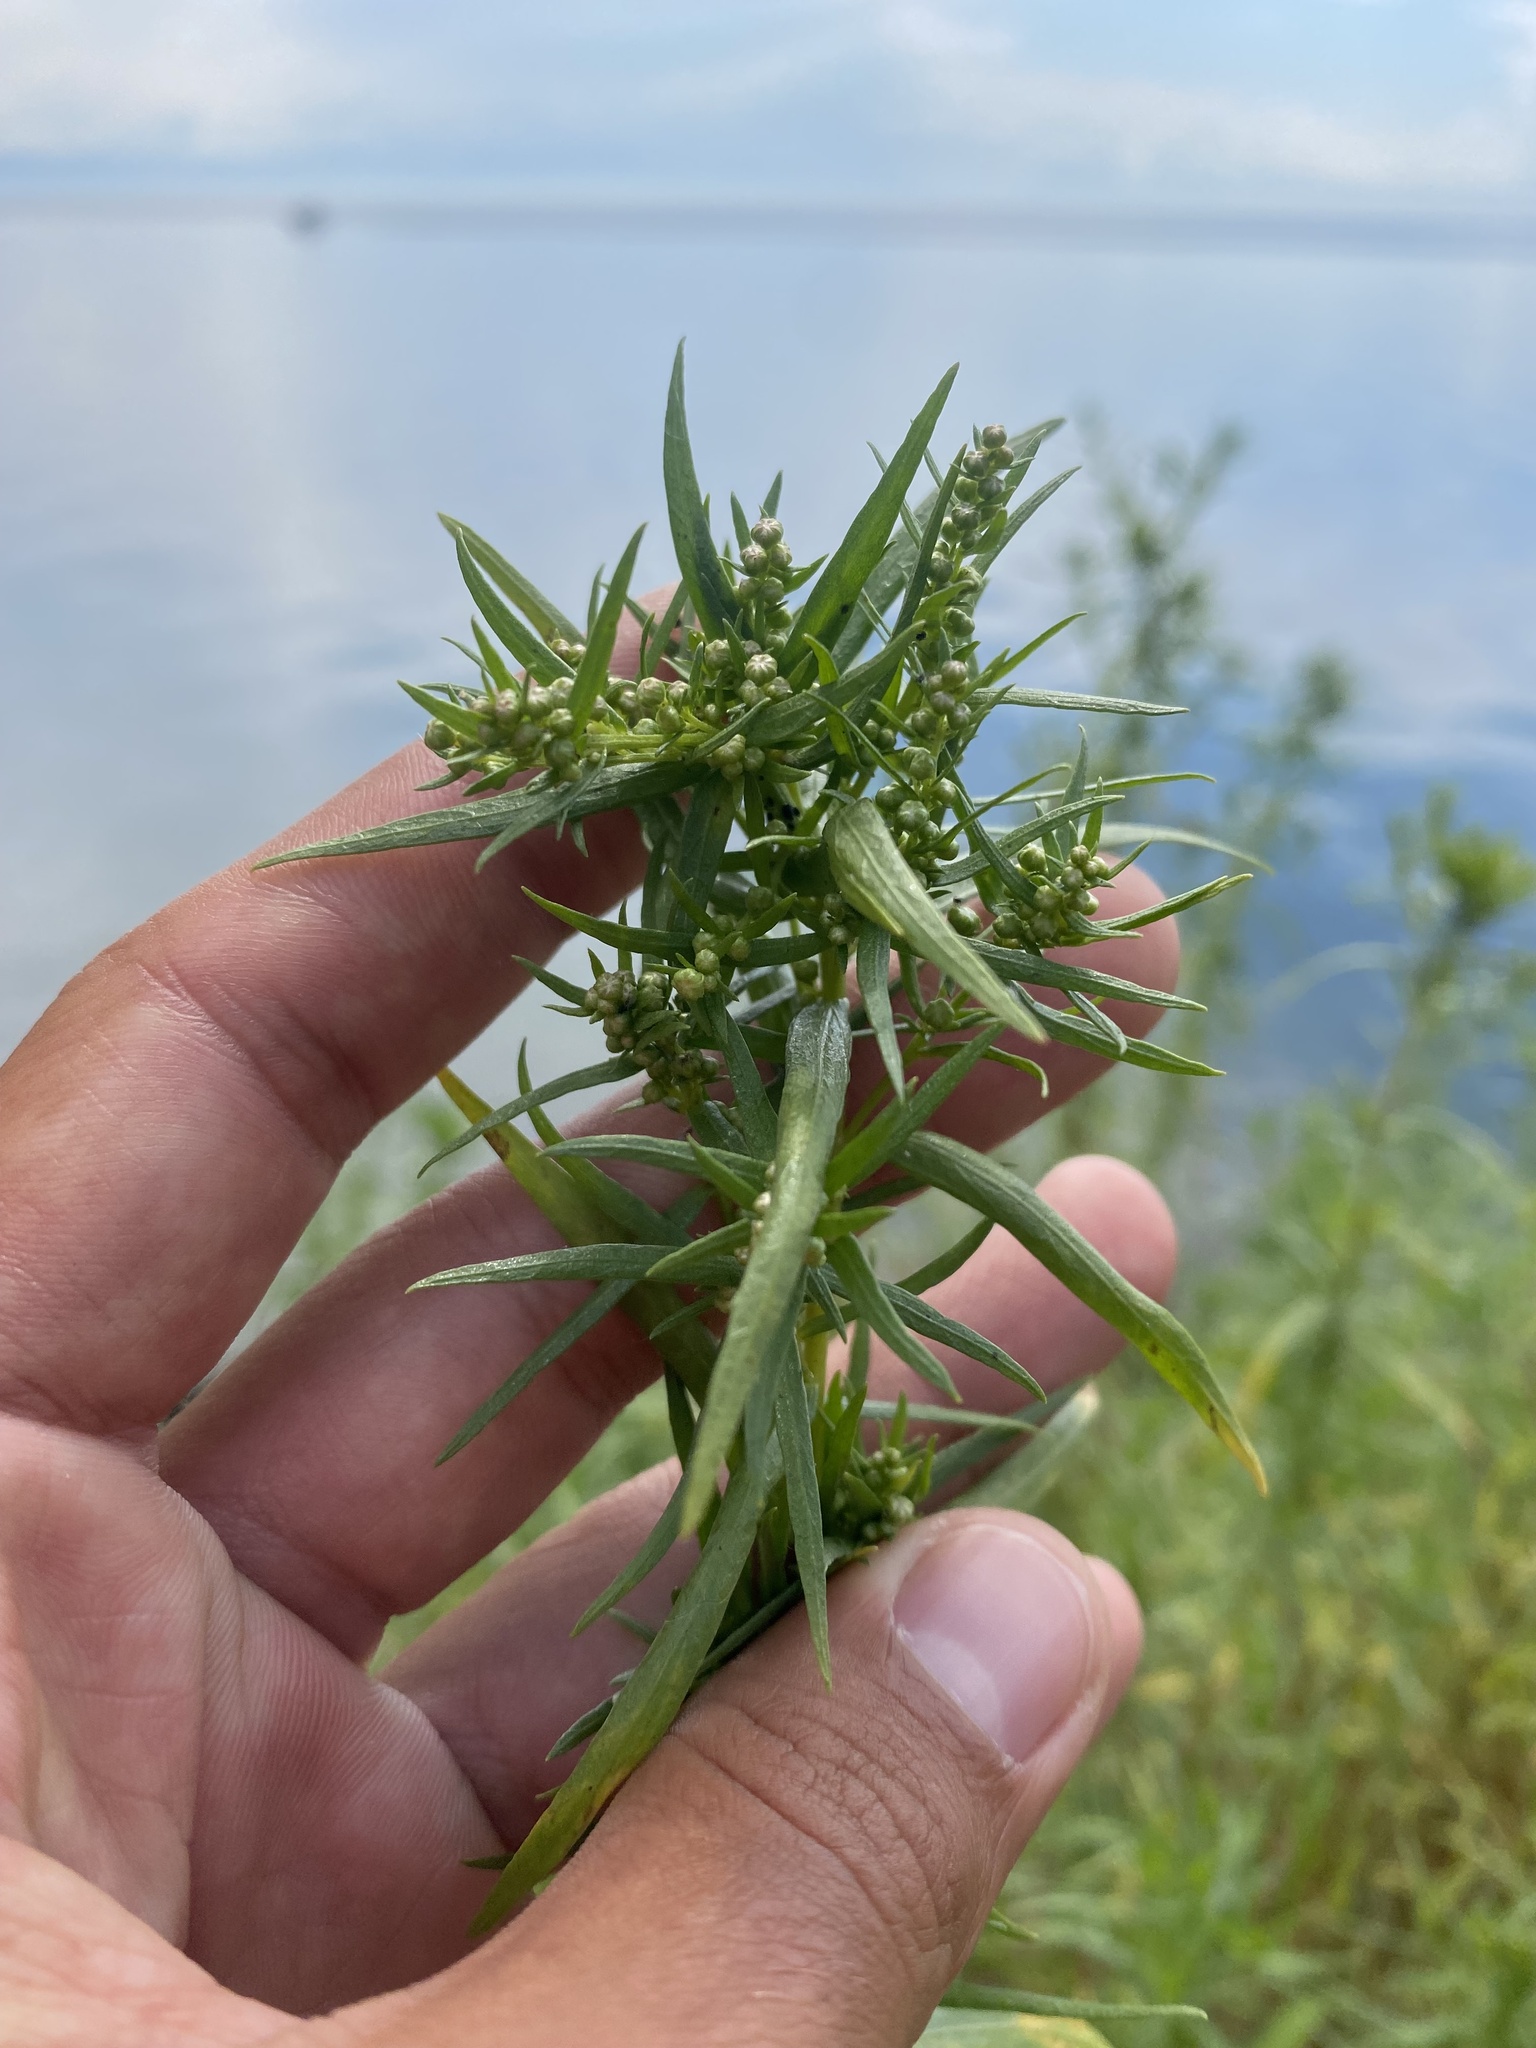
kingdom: Plantae
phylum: Tracheophyta
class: Magnoliopsida
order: Asterales
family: Asteraceae
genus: Artemisia
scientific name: Artemisia dracunculus
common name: Tarragon
